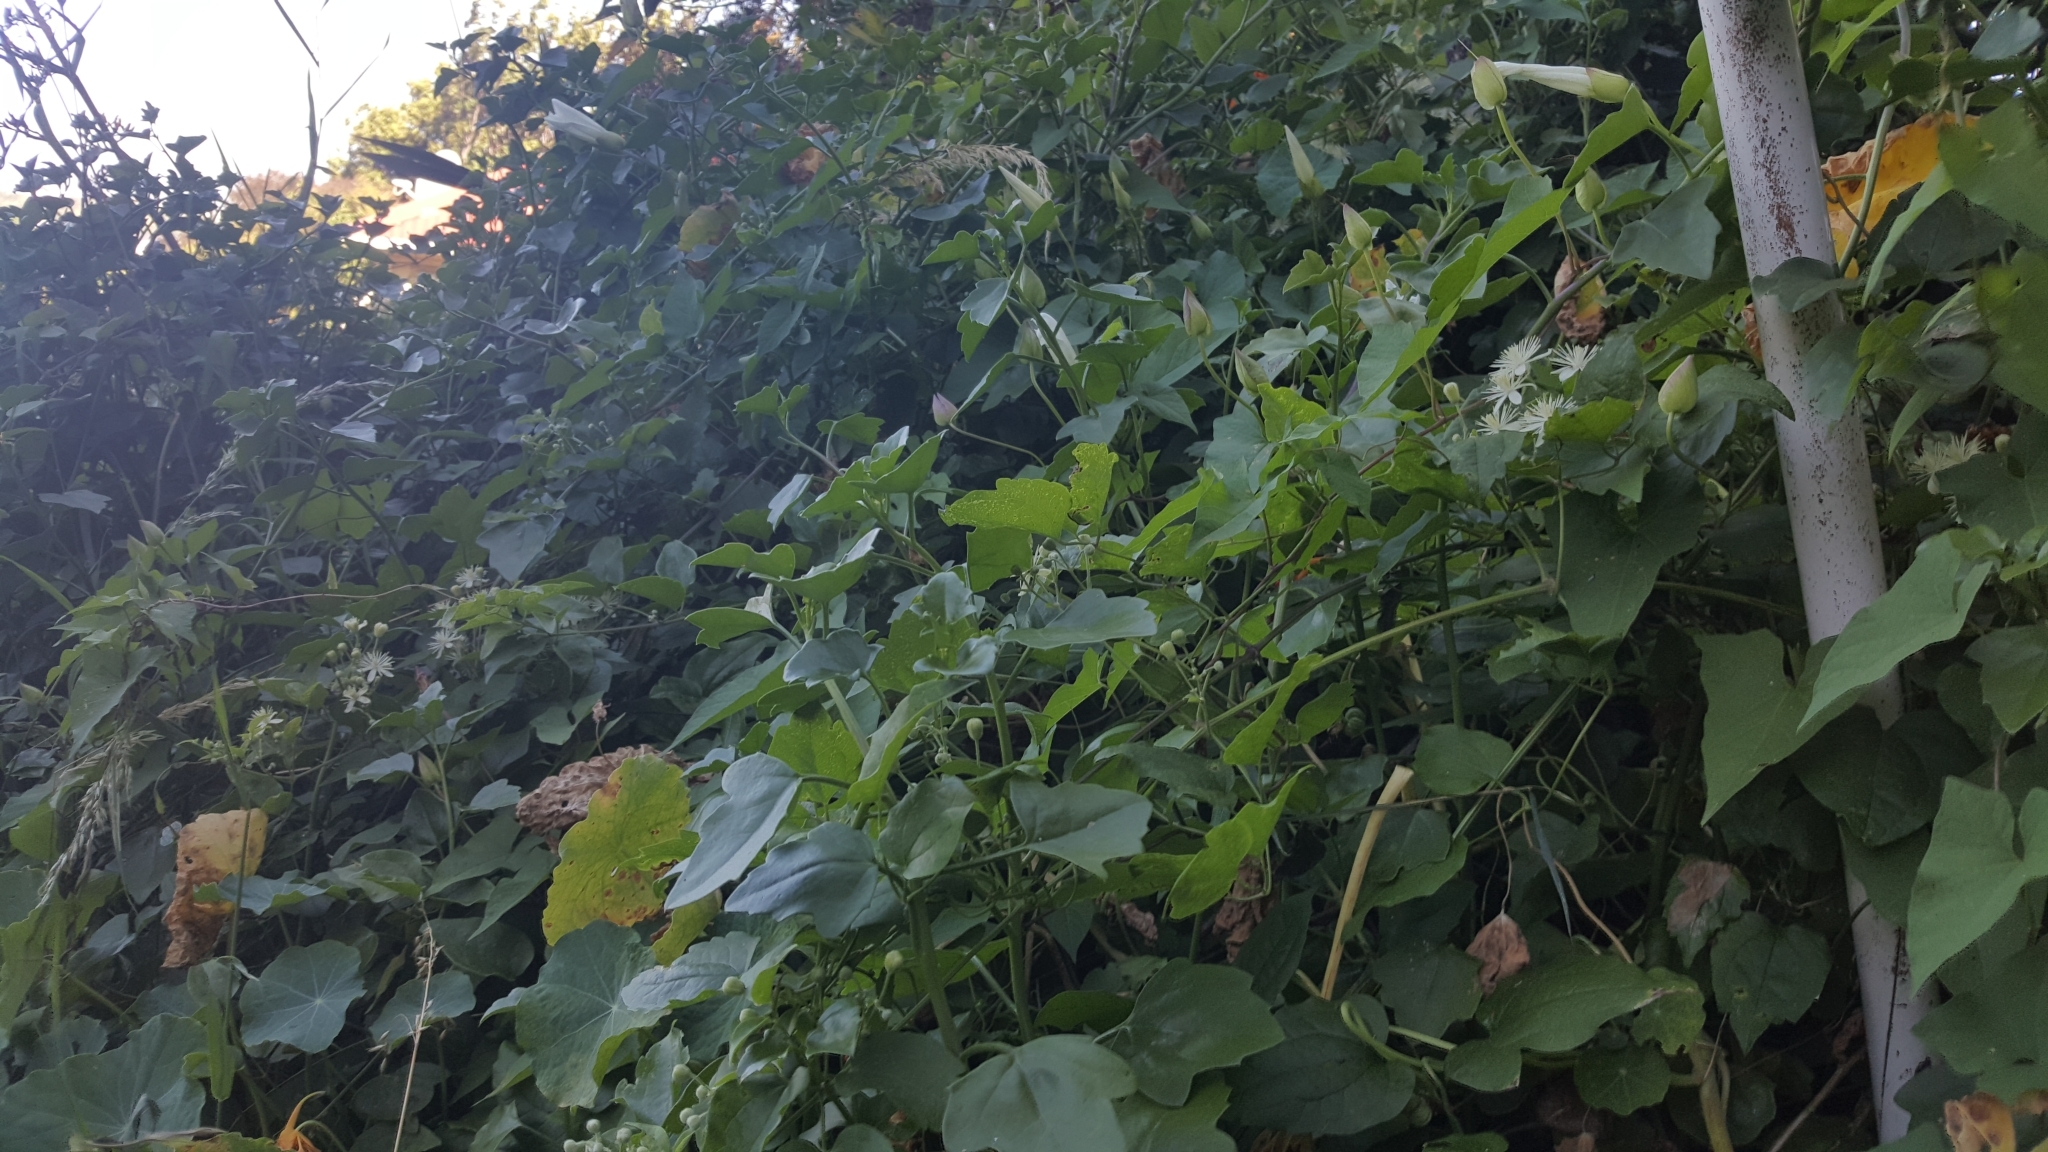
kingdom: Plantae
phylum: Tracheophyta
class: Magnoliopsida
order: Ranunculales
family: Ranunculaceae
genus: Clematis
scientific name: Clematis vitalba
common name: Evergreen clematis
